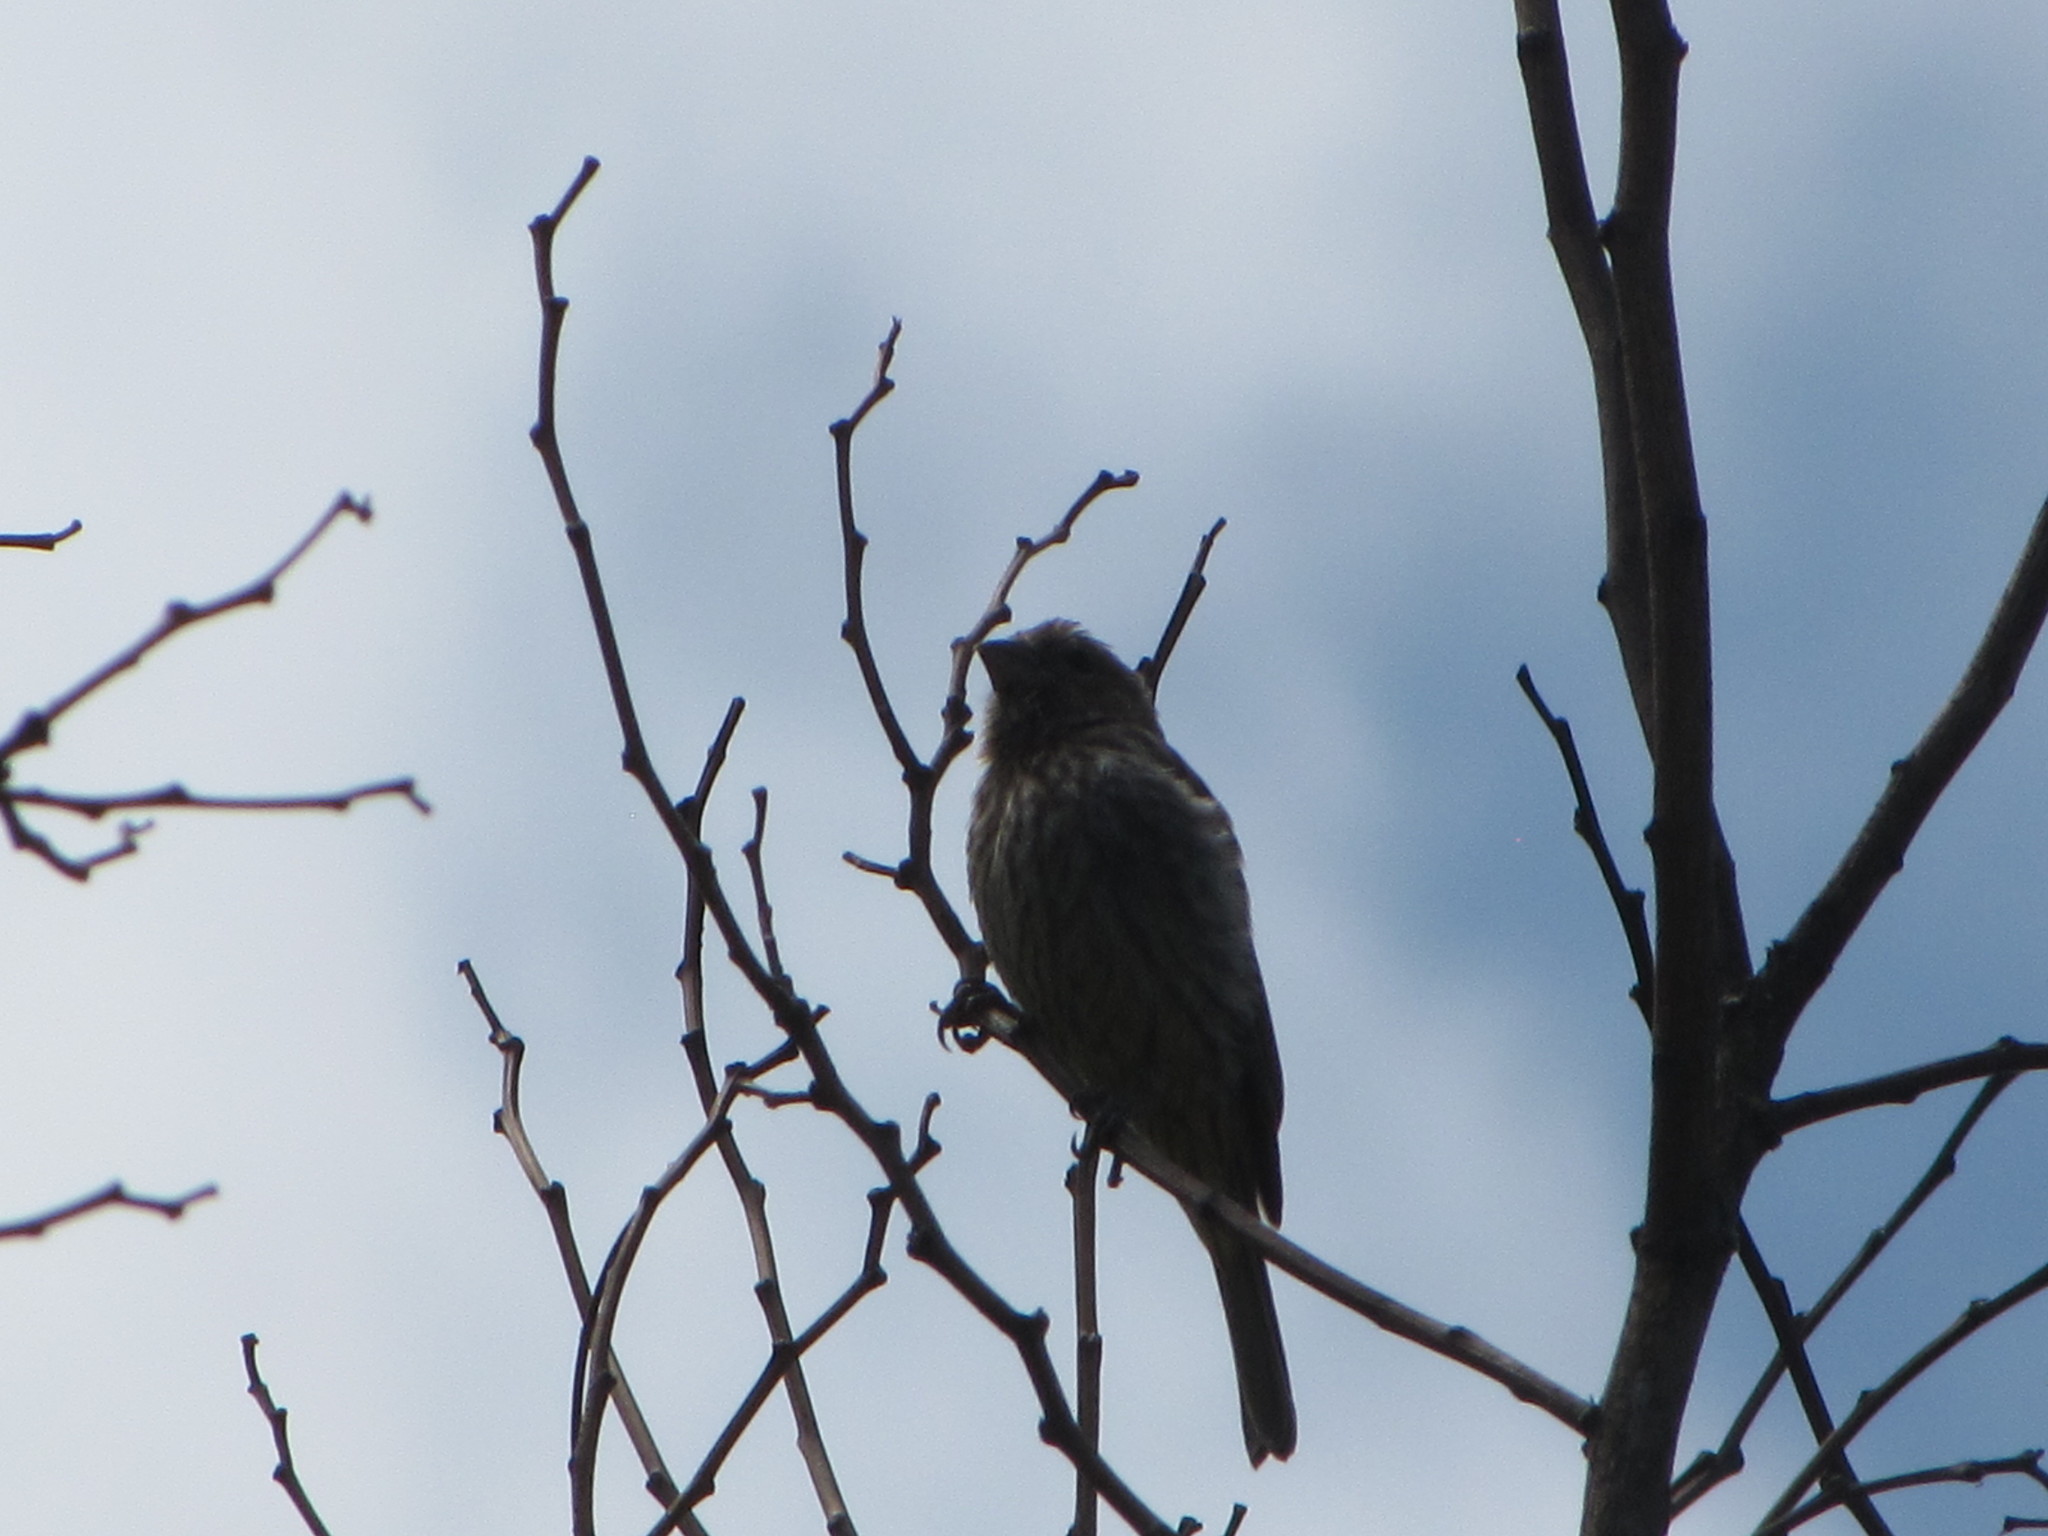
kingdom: Animalia
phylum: Chordata
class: Aves
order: Passeriformes
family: Fringillidae
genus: Haemorhous
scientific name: Haemorhous mexicanus
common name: House finch
